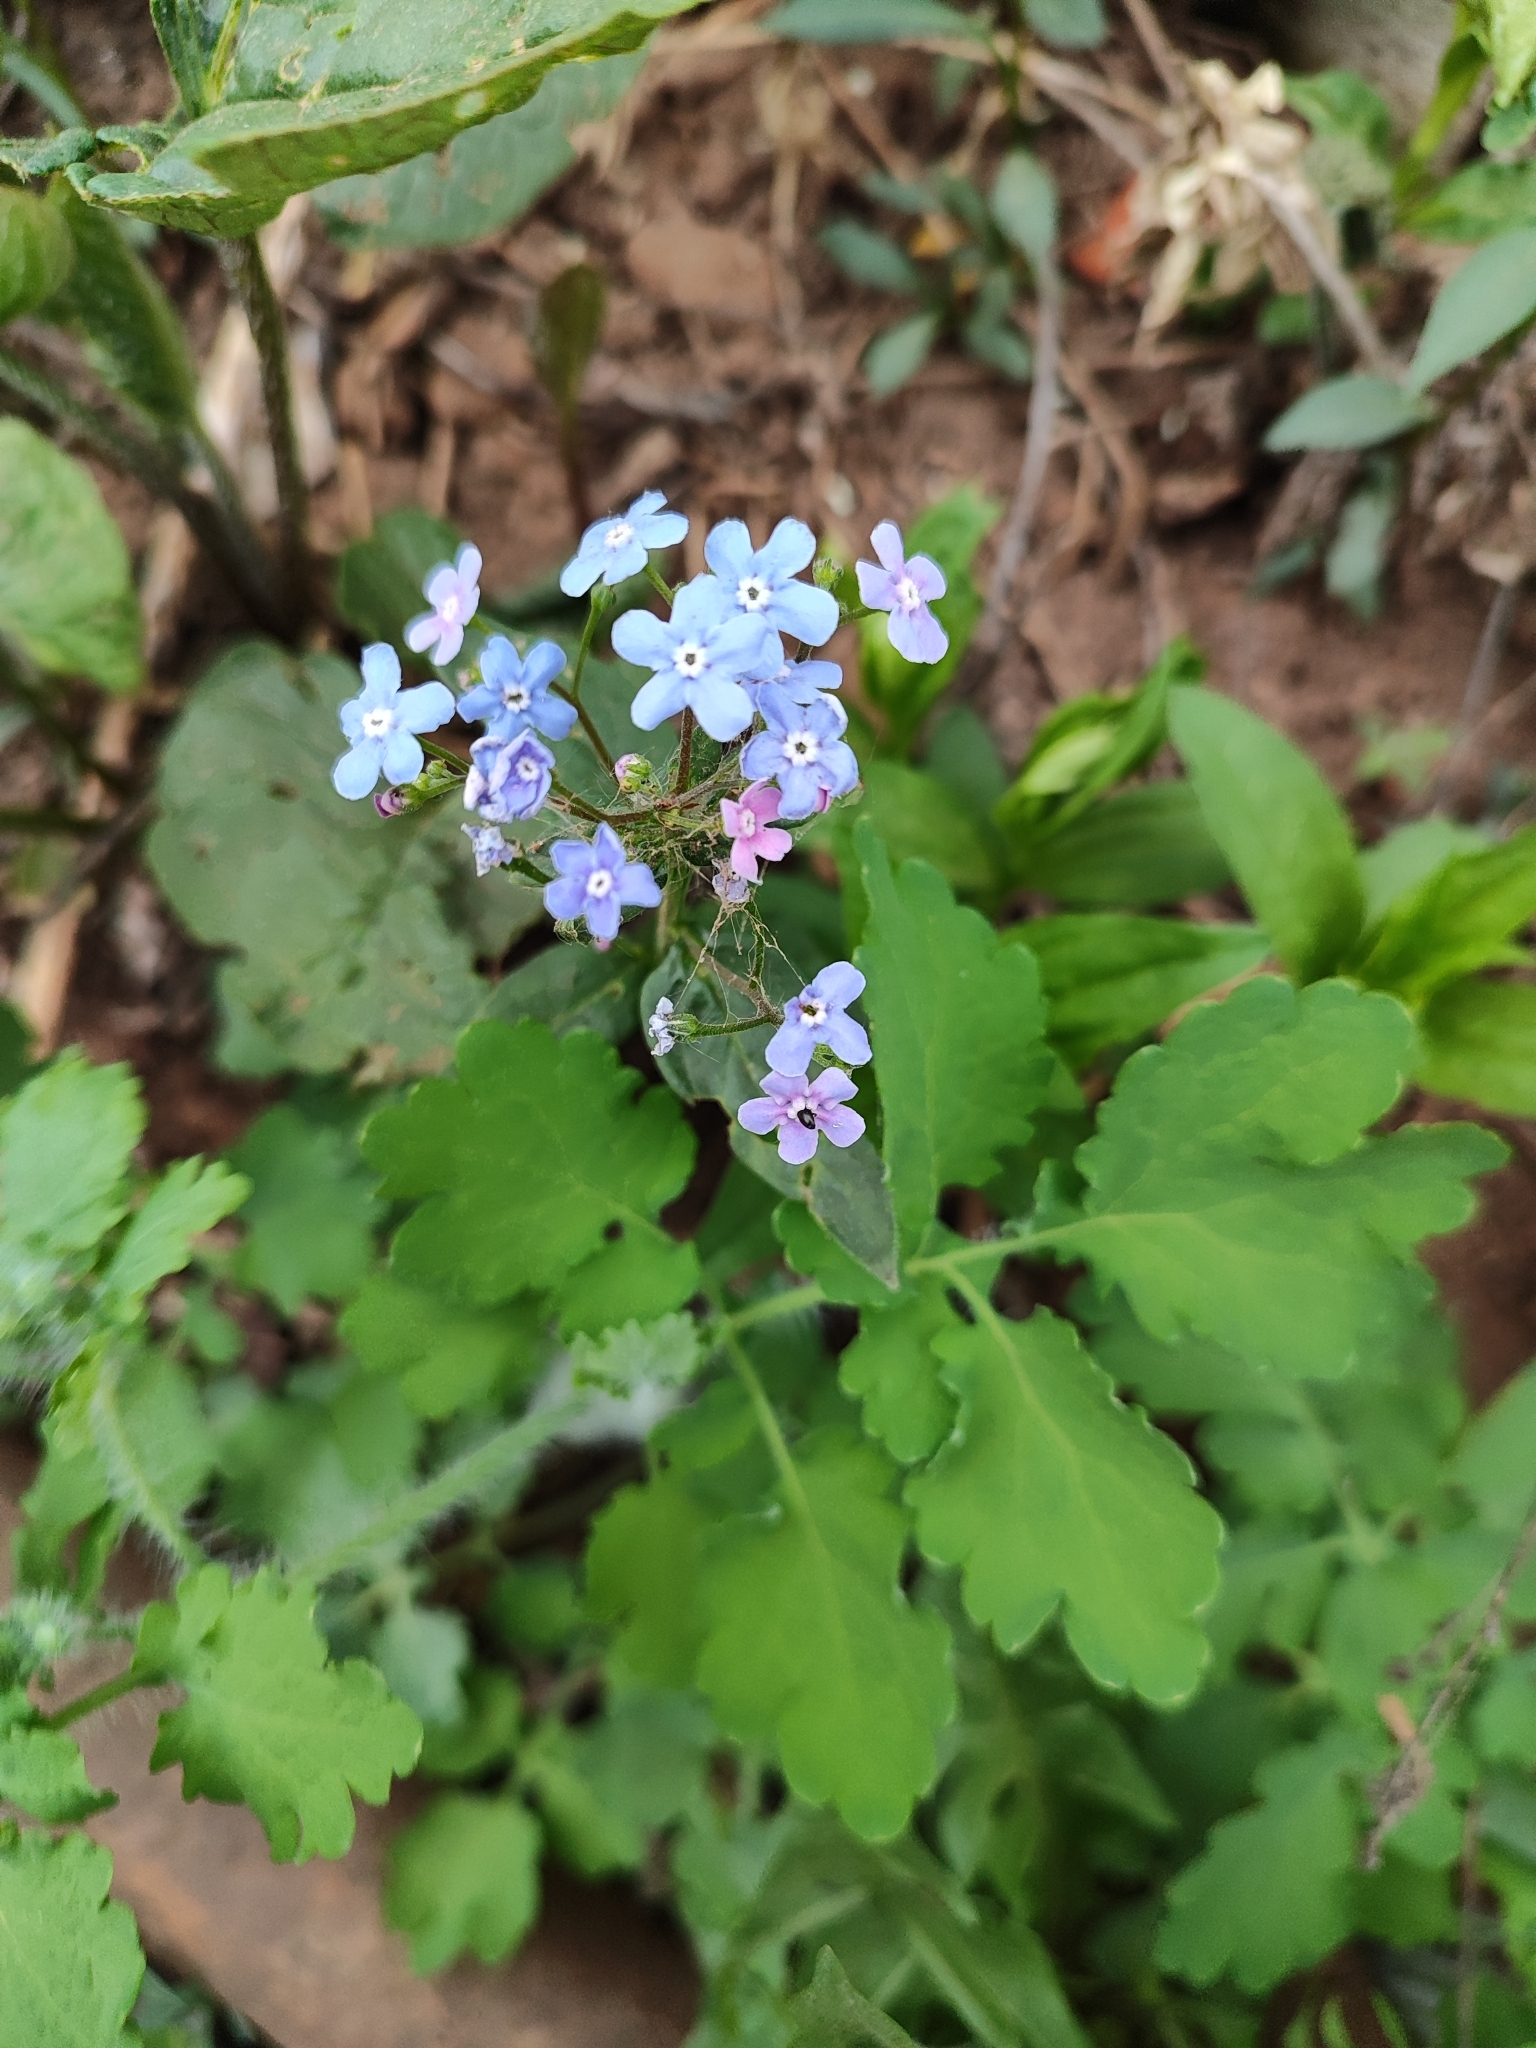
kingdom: Plantae
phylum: Tracheophyta
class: Magnoliopsida
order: Boraginales
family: Boraginaceae
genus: Brunnera
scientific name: Brunnera sibirica
